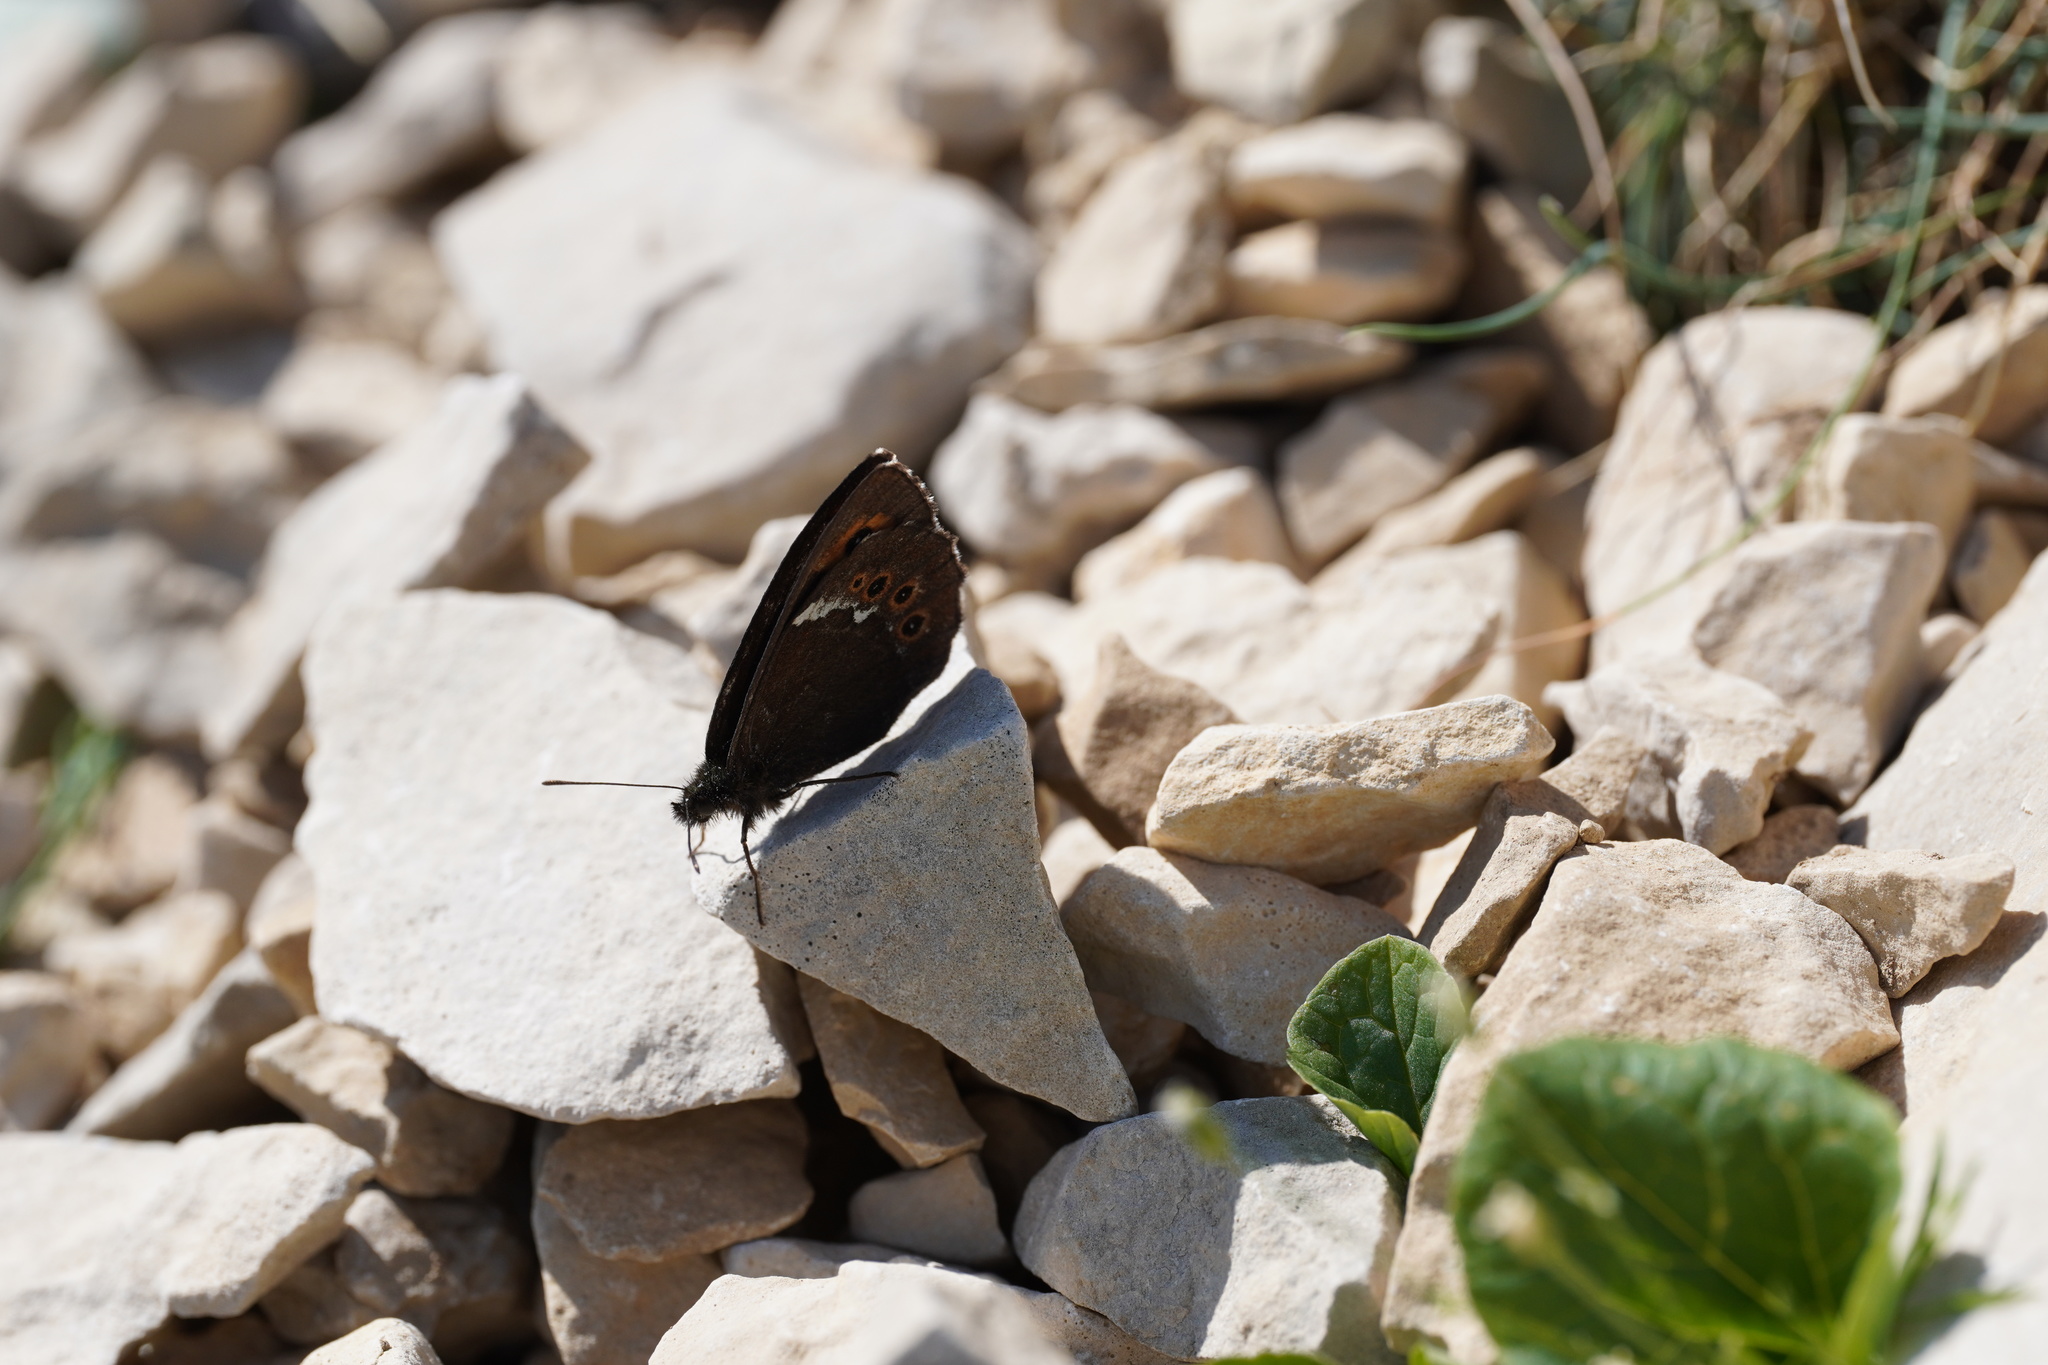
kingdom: Animalia
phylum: Arthropoda
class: Insecta
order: Lepidoptera
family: Nymphalidae
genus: Erebia
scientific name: Erebia ligea
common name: Arran brown
